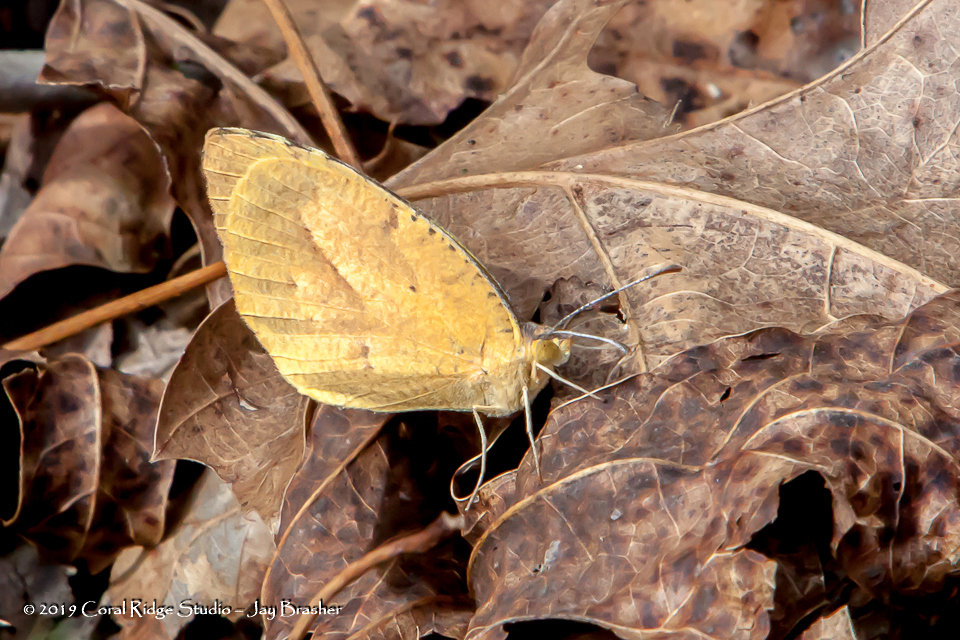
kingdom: Animalia
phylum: Arthropoda
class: Insecta
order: Lepidoptera
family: Pieridae
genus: Abaeis
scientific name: Abaeis nicippe
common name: Sleepy orange
